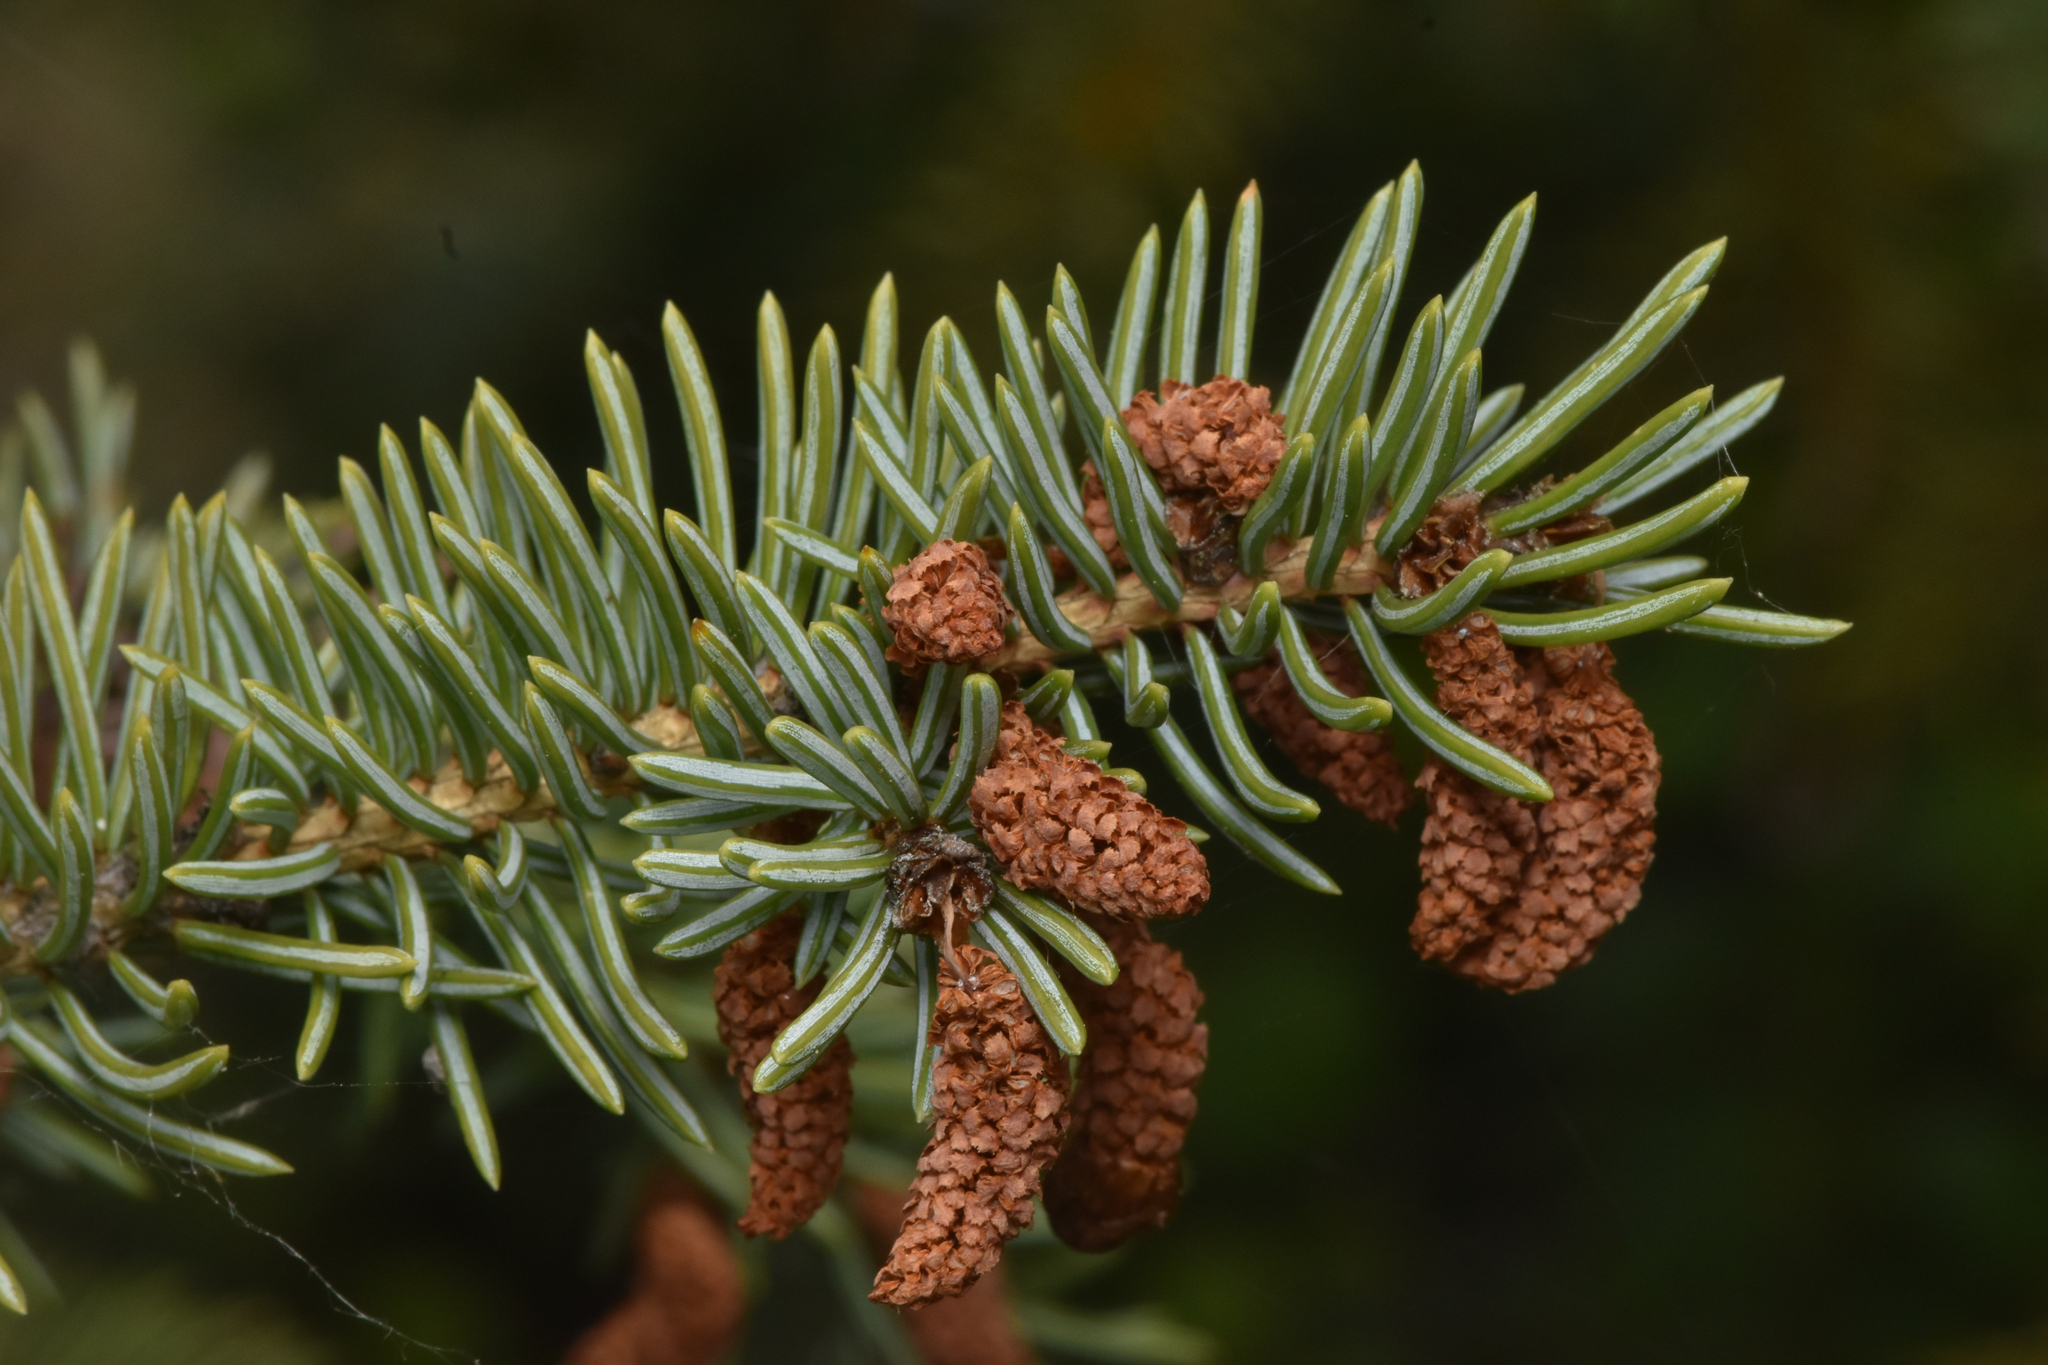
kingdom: Plantae
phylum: Tracheophyta
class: Pinopsida
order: Pinales
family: Pinaceae
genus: Picea
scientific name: Picea
